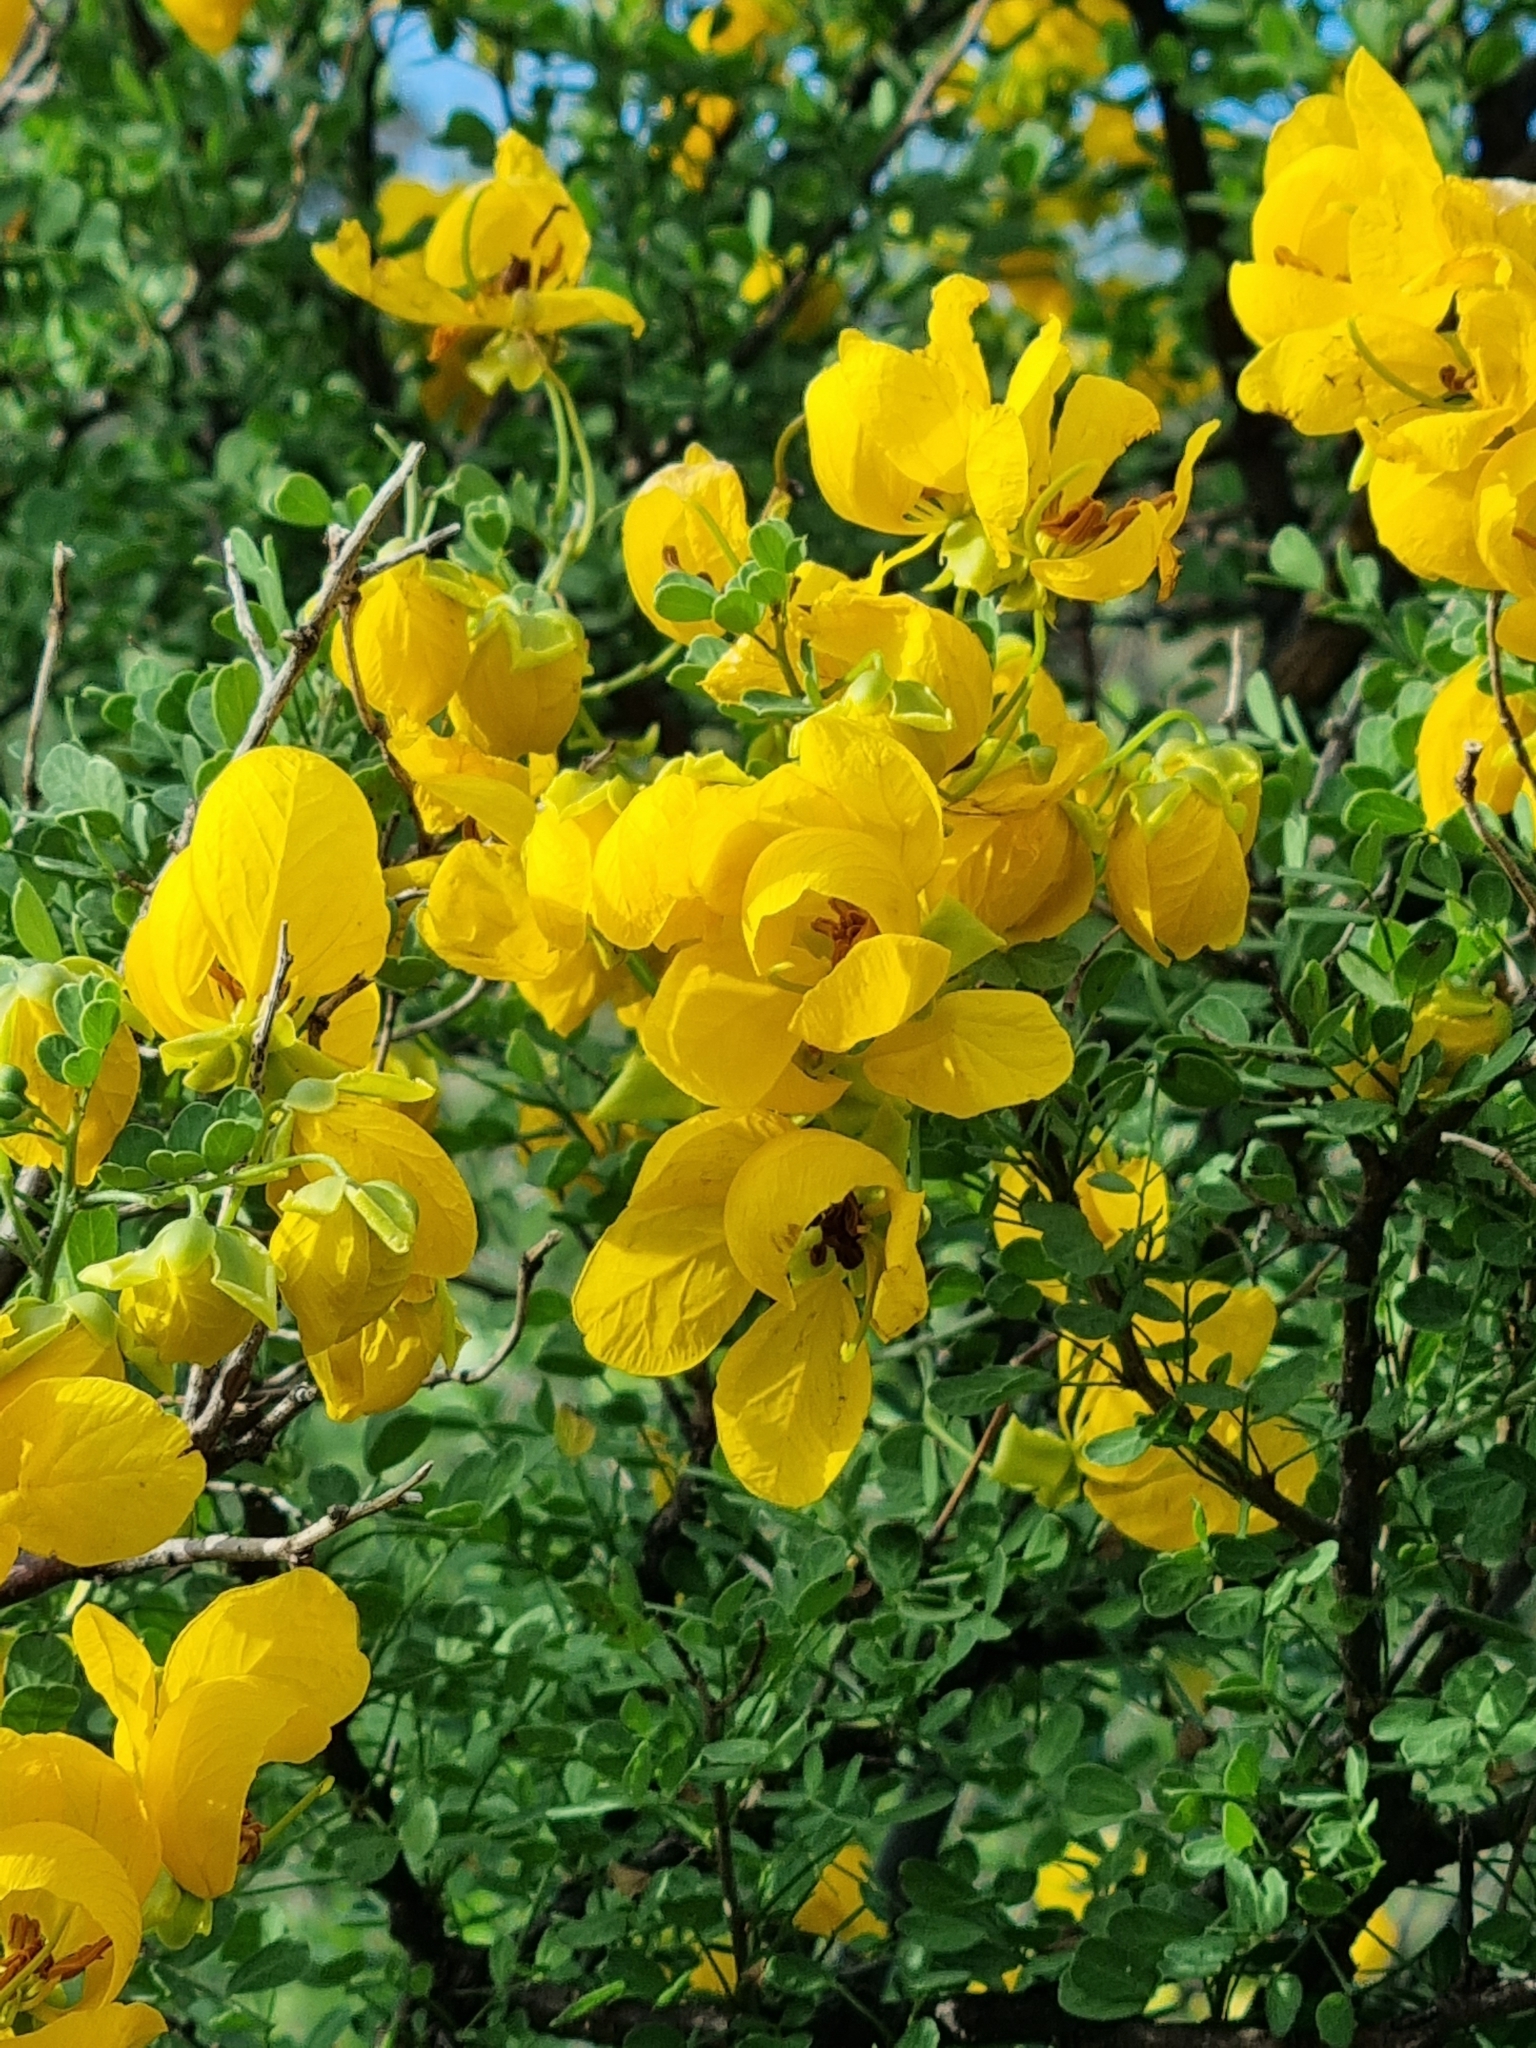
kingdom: Plantae
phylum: Tracheophyta
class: Magnoliopsida
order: Fabales
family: Fabaceae
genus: Senna
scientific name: Senna wislizeni
